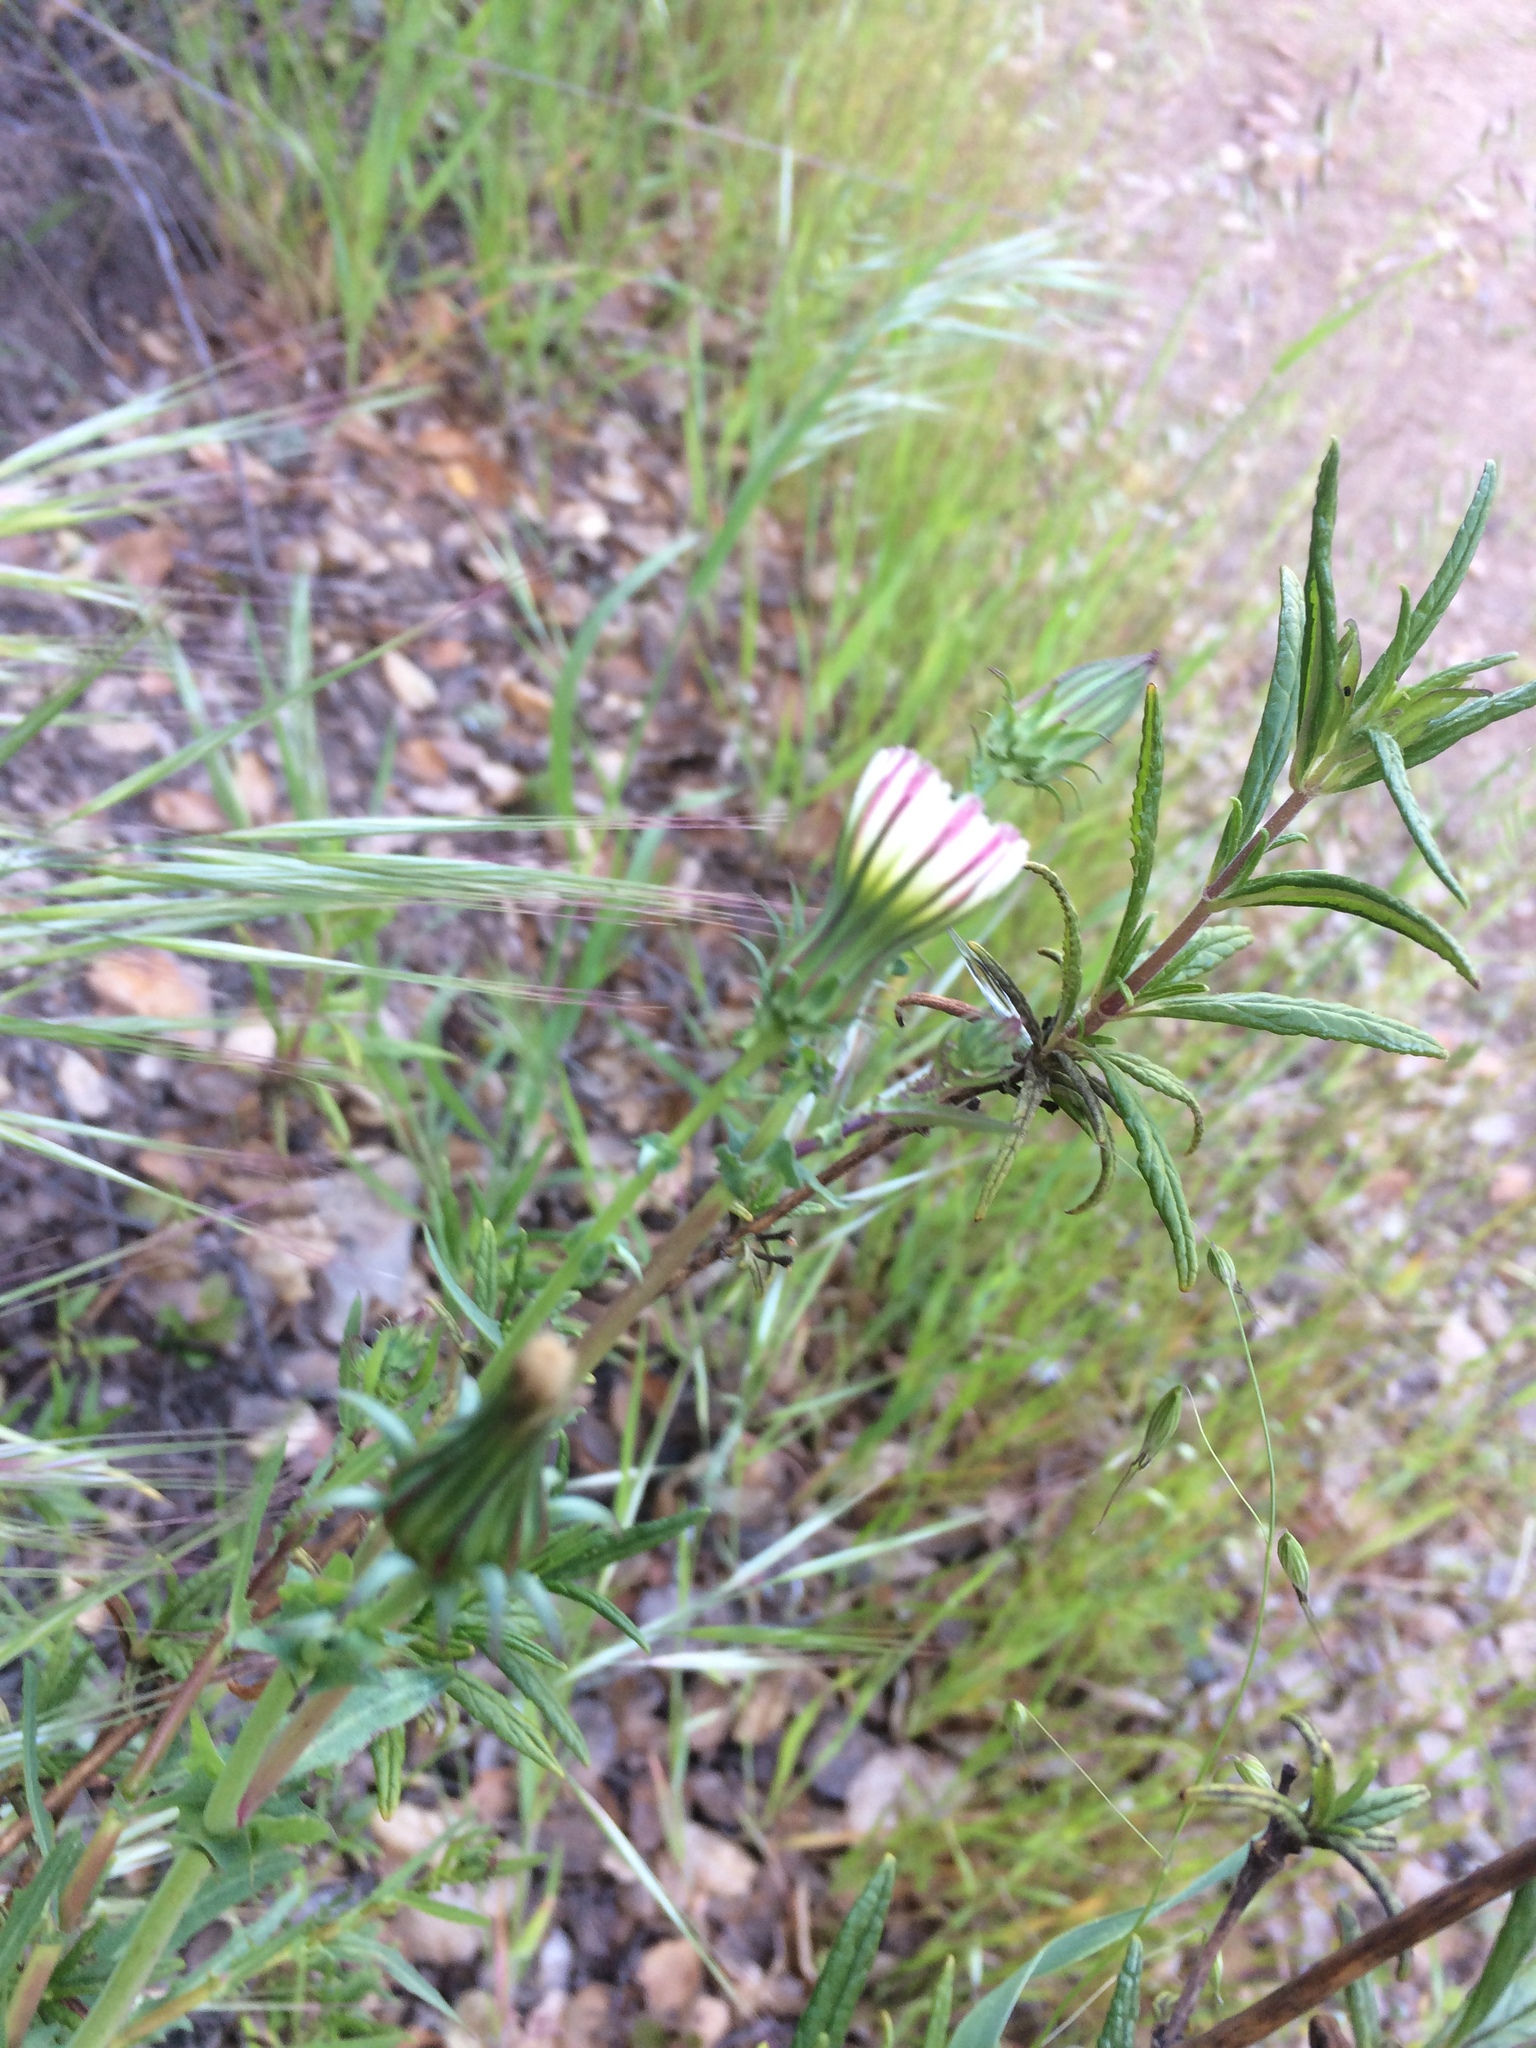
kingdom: Plantae
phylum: Tracheophyta
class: Magnoliopsida
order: Asterales
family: Asteraceae
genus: Rafinesquia
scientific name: Rafinesquia californica
